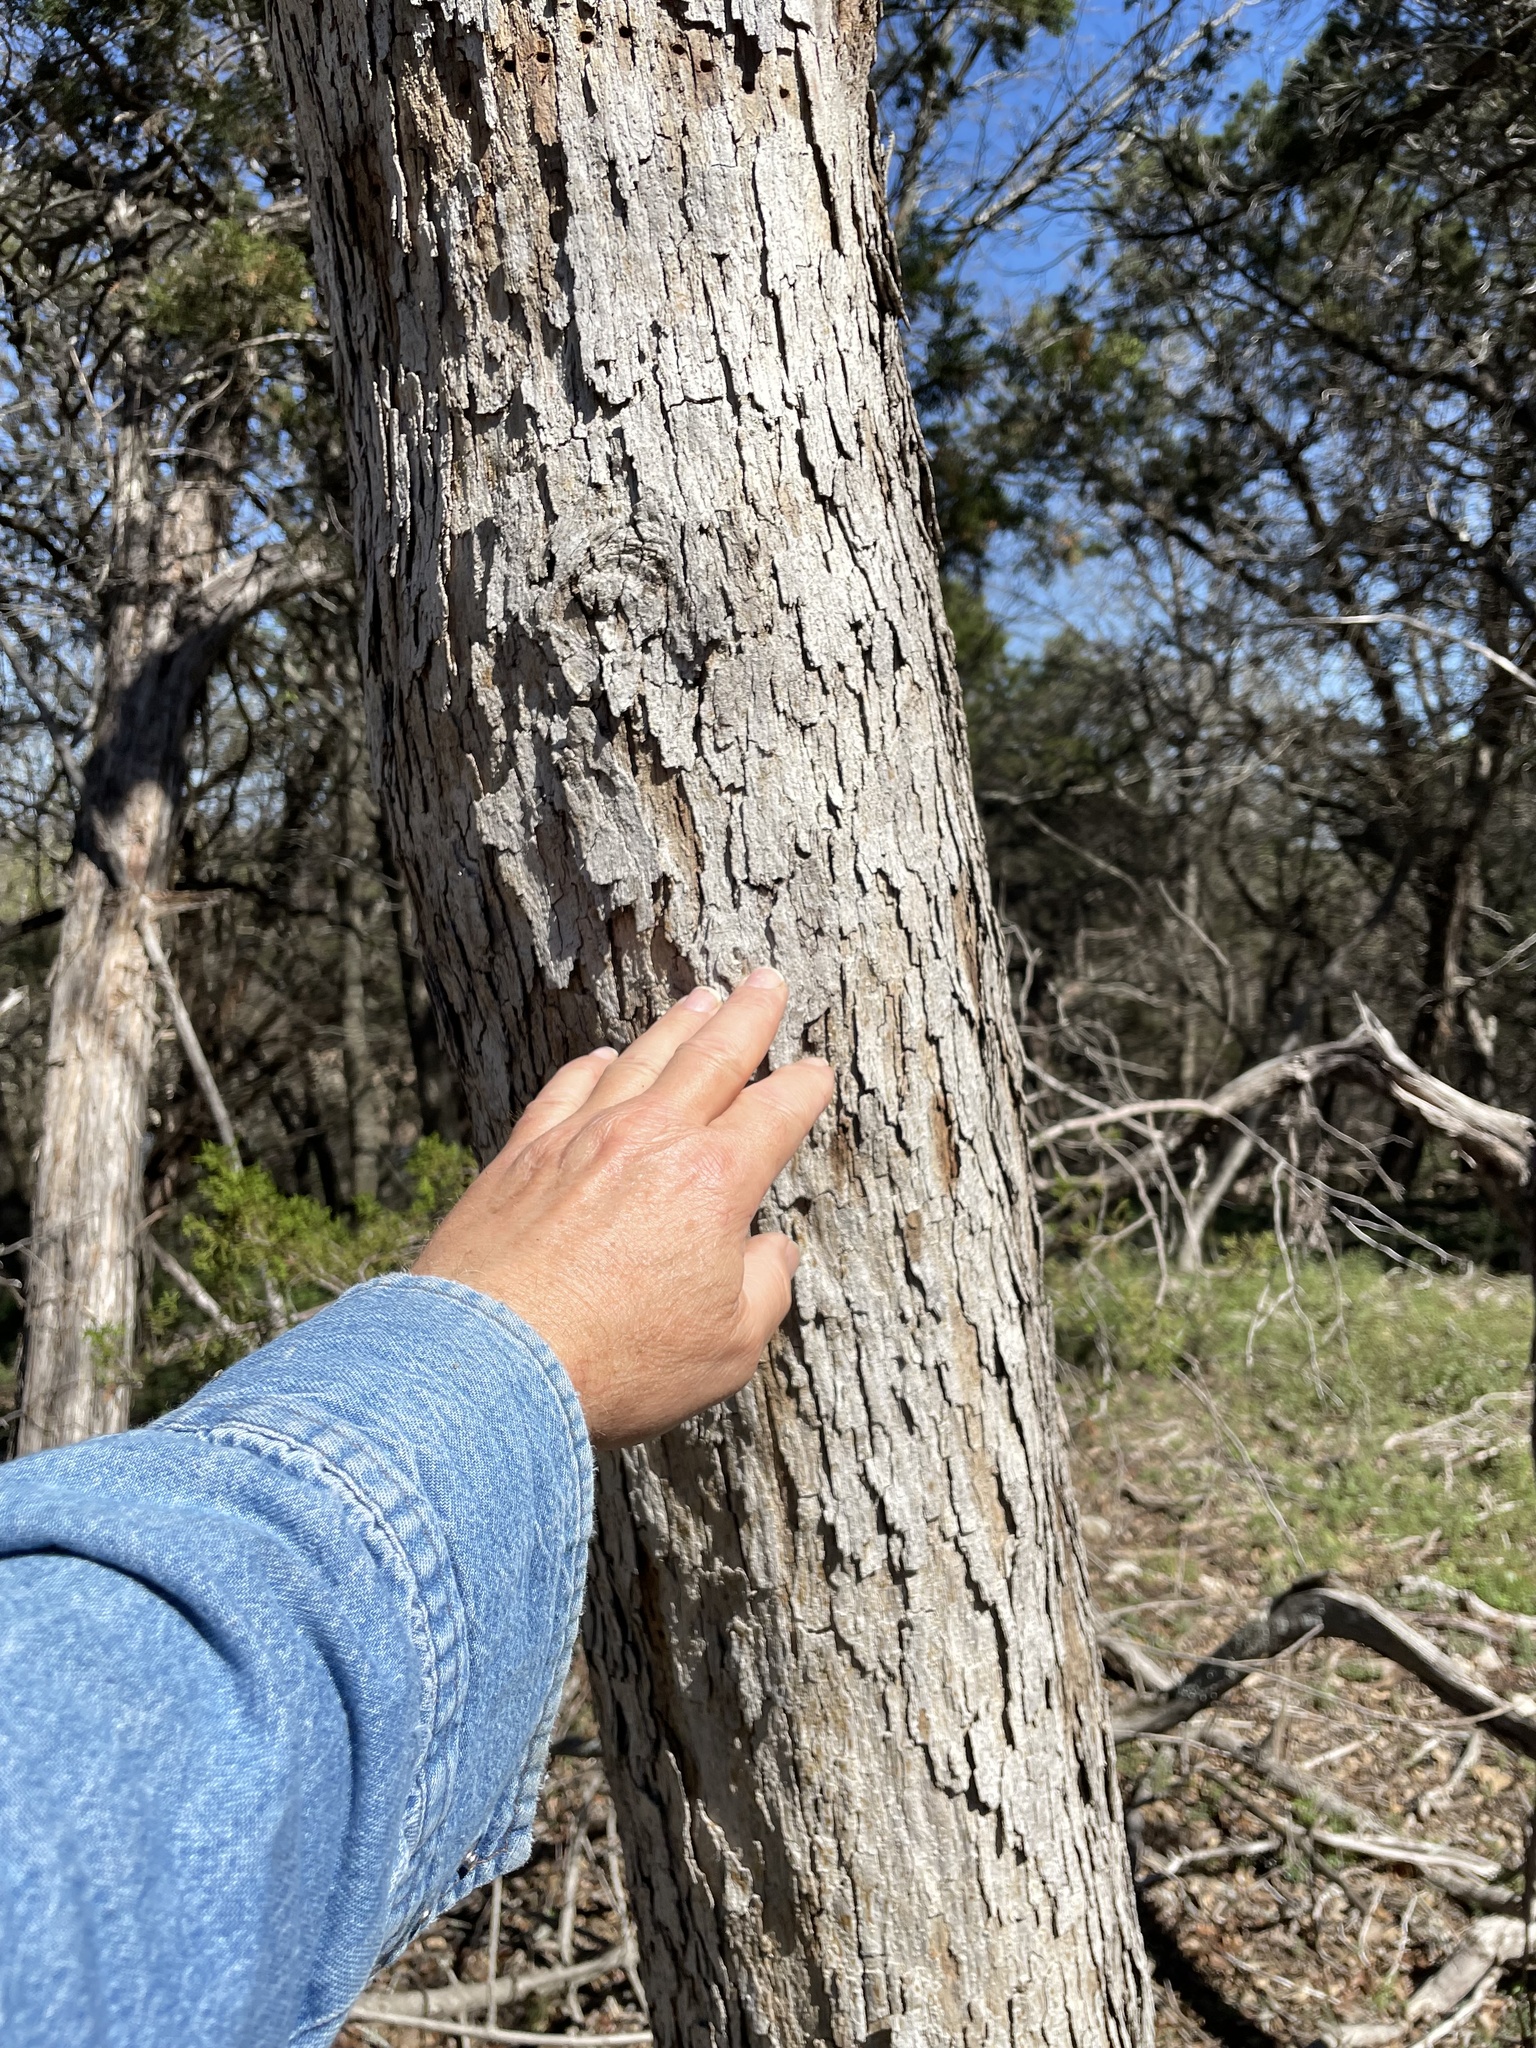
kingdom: Plantae
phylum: Tracheophyta
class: Magnoliopsida
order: Fagales
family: Fagaceae
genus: Quercus
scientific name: Quercus sinuata
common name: Durand oak
